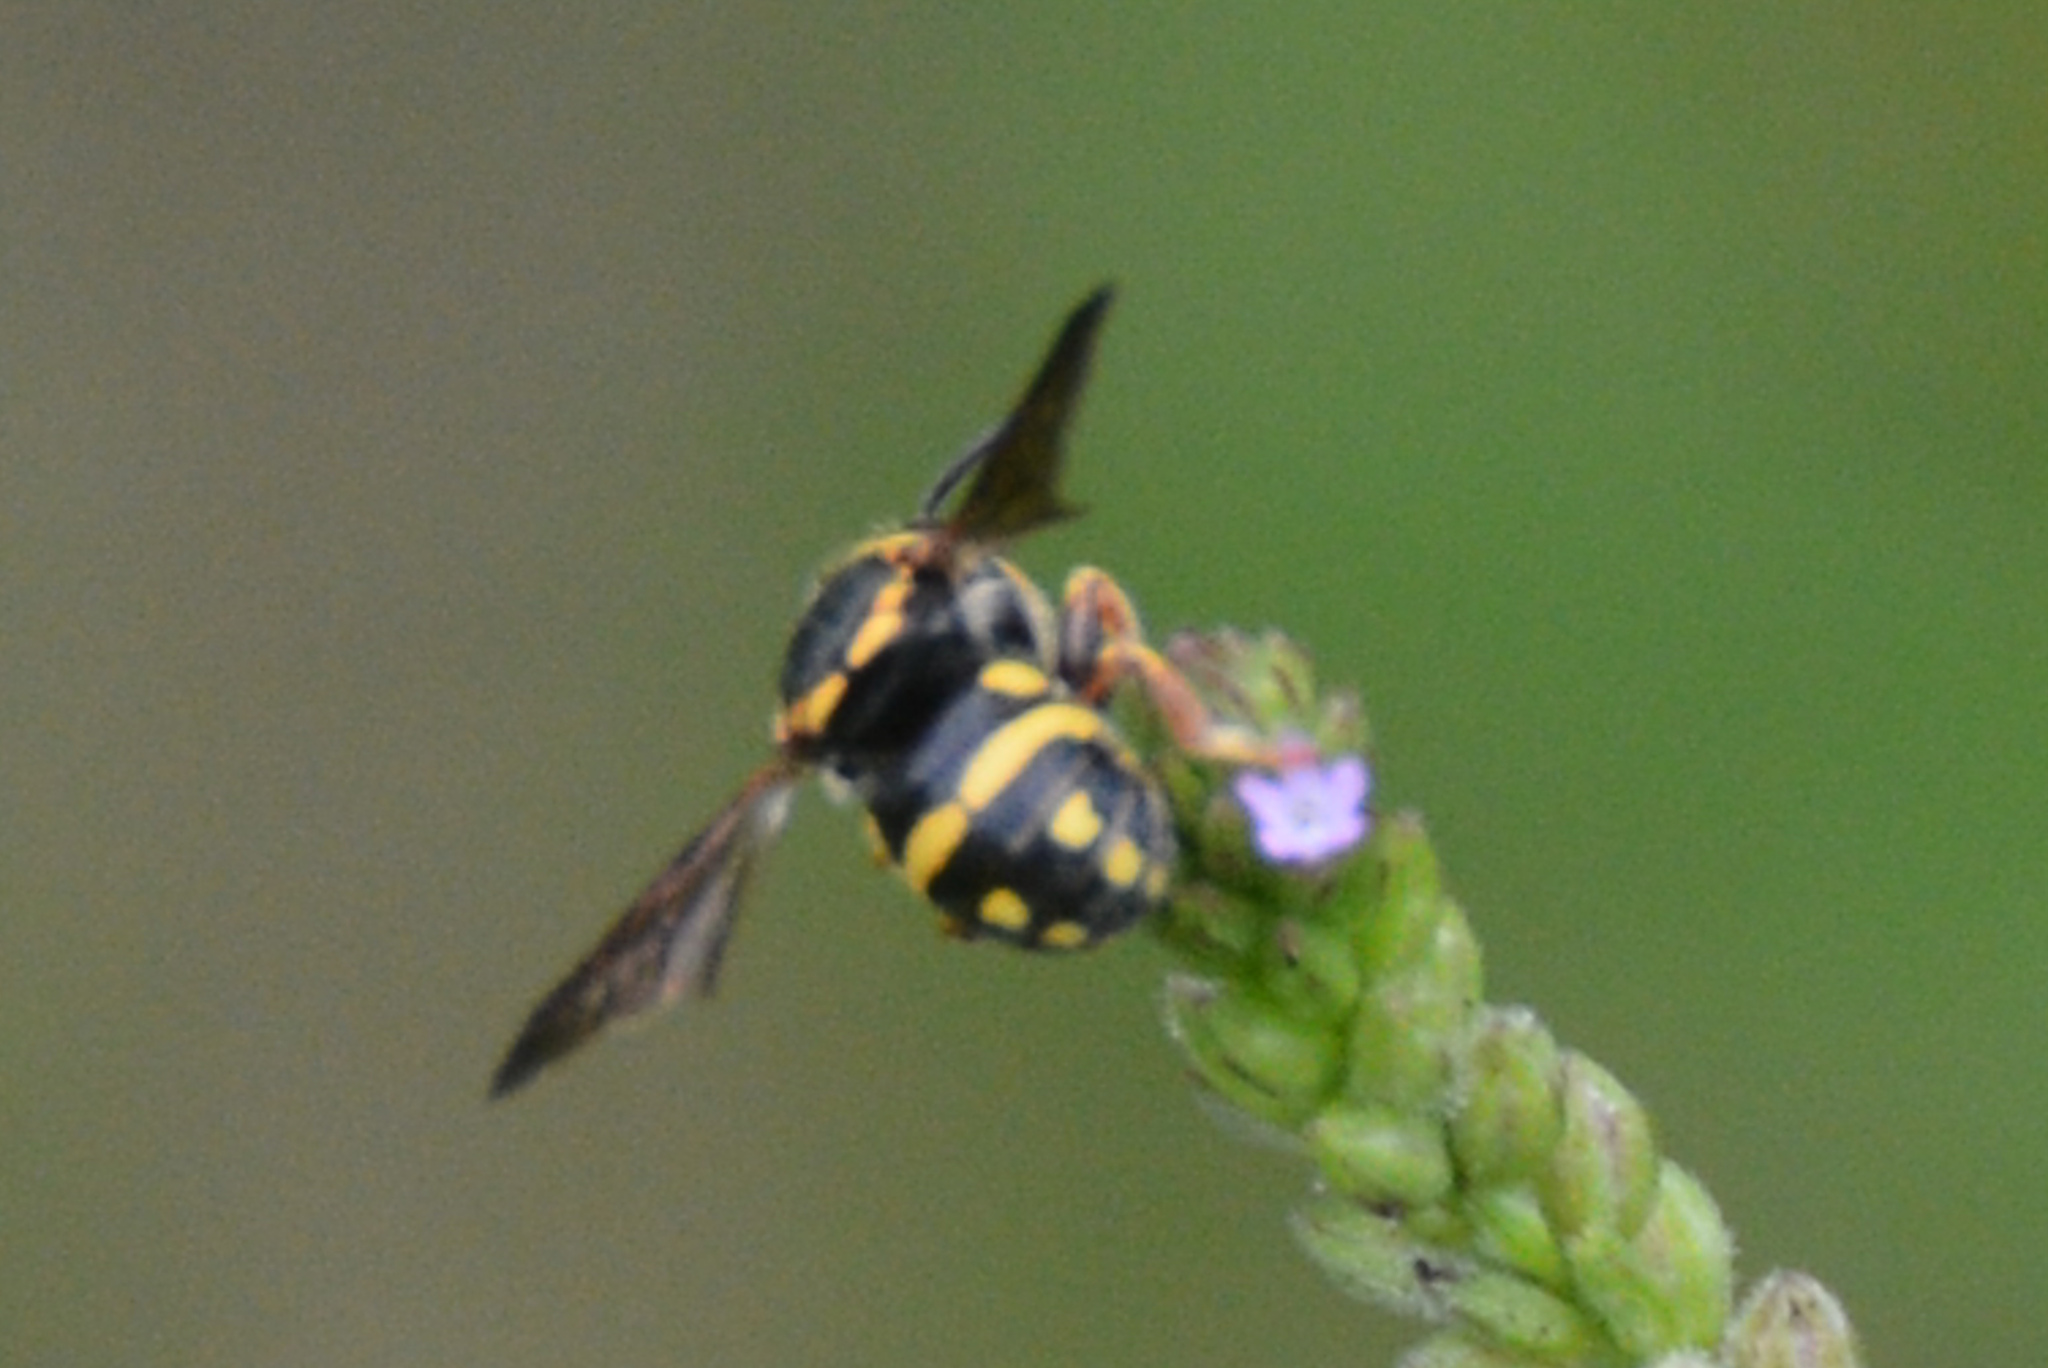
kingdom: Animalia
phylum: Arthropoda
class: Insecta
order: Hymenoptera
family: Megachilidae
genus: Anthidiellum
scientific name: Anthidiellum notatum
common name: Northern rotund-resin bee
